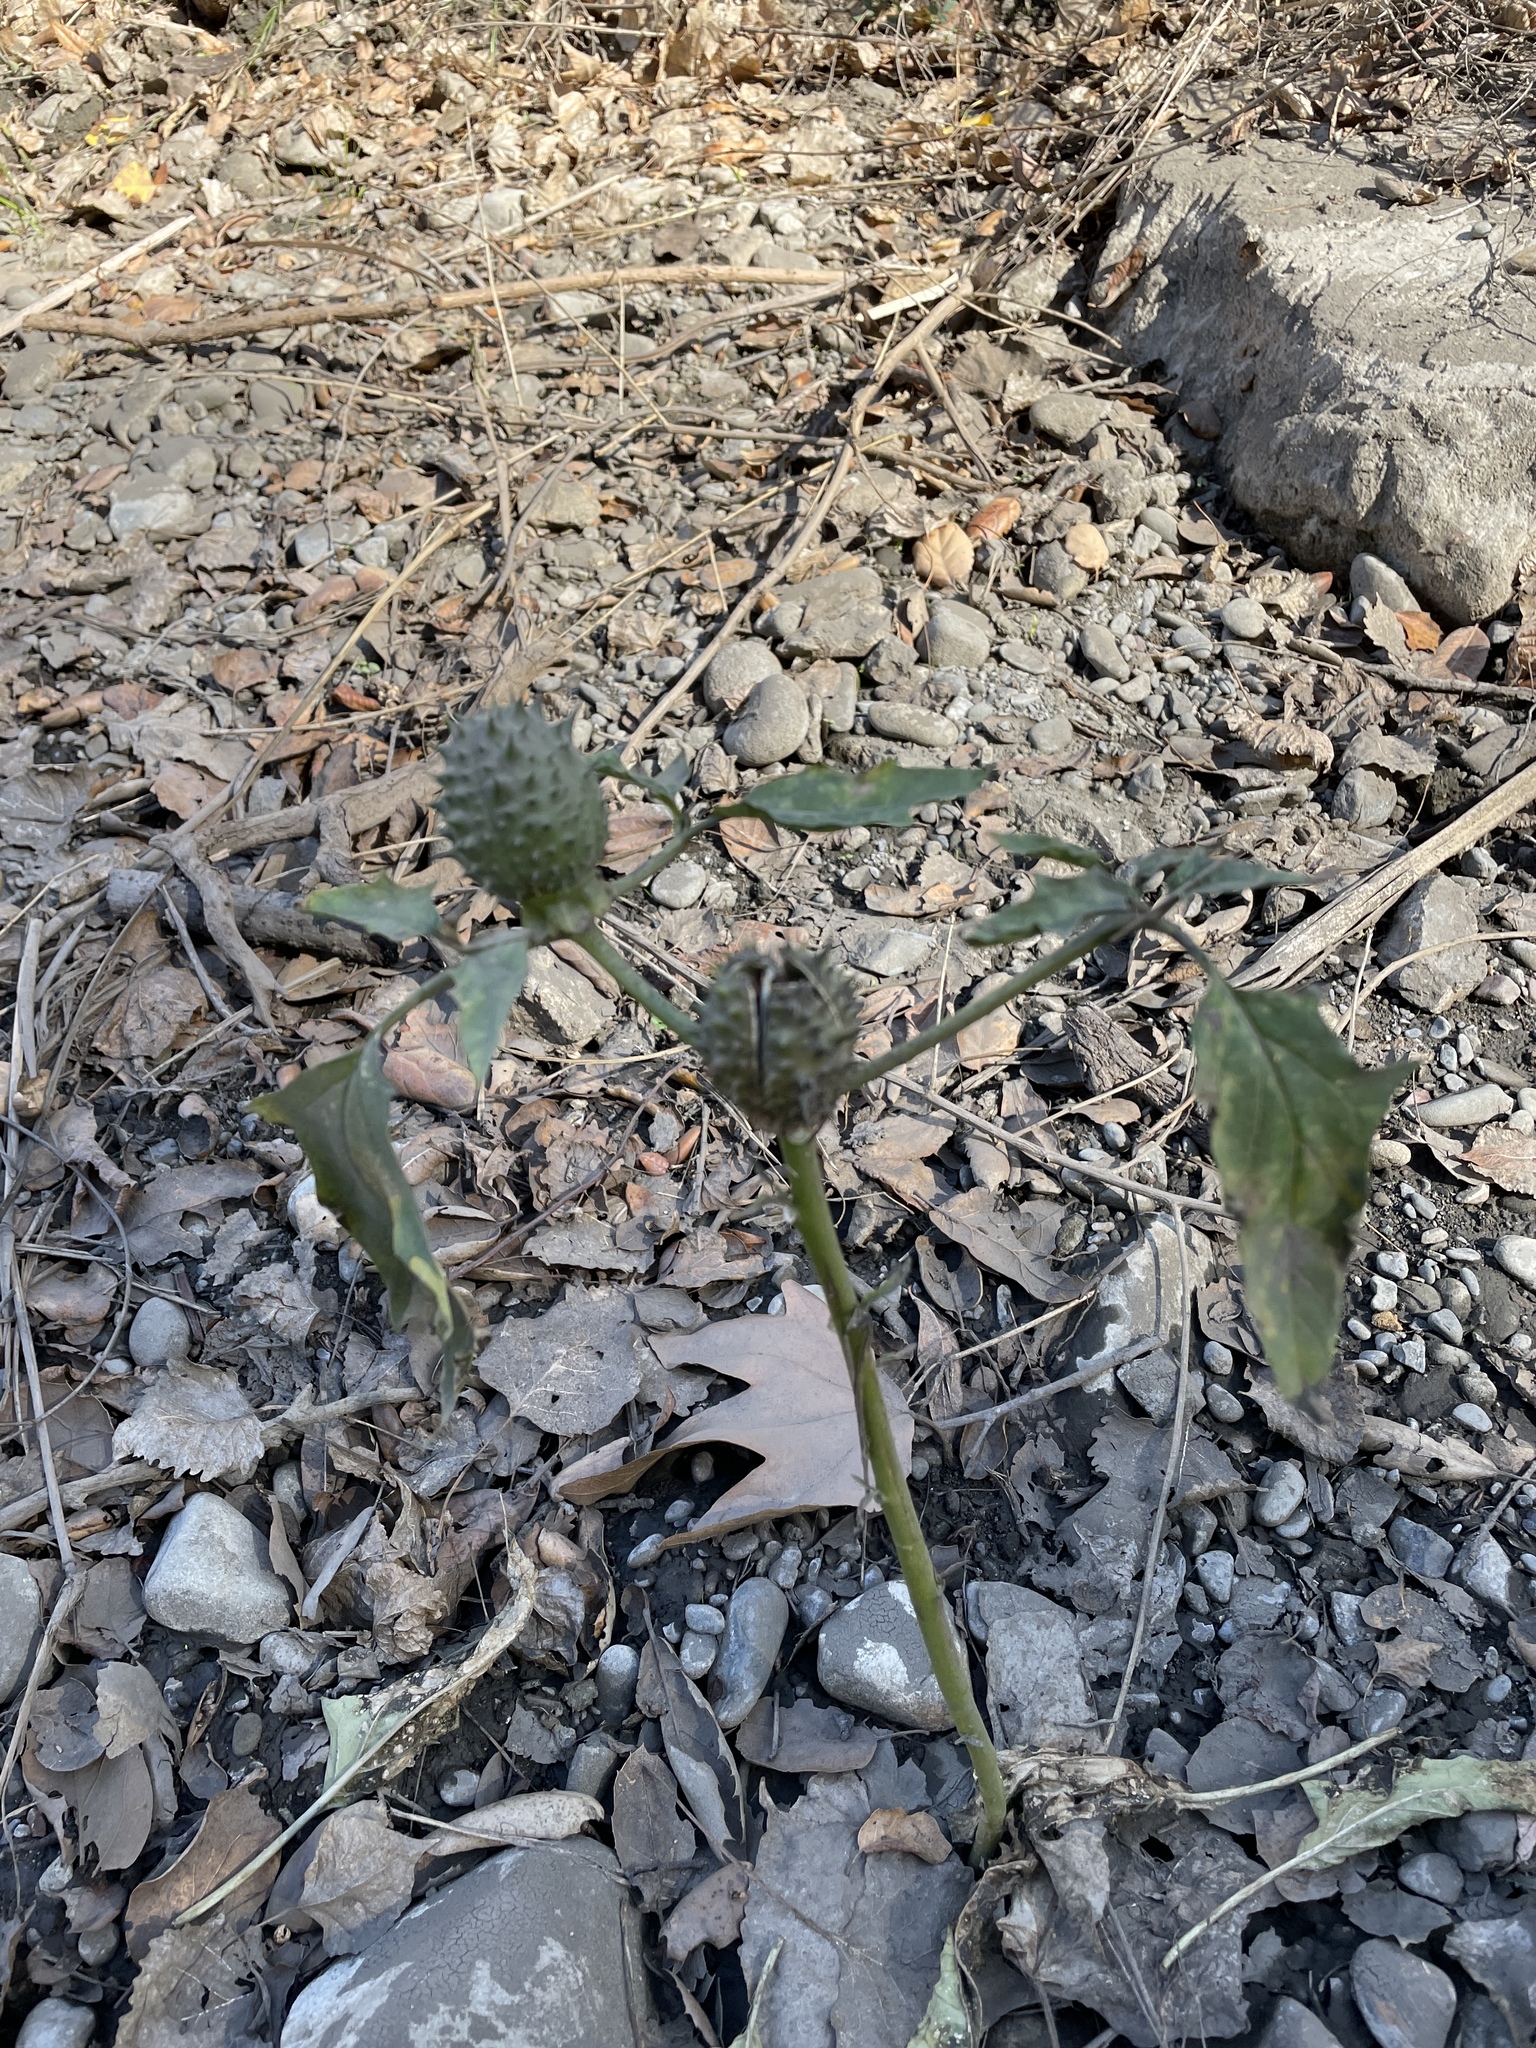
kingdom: Plantae
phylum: Tracheophyta
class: Magnoliopsida
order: Solanales
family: Solanaceae
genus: Datura
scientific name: Datura stramonium
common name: Thorn-apple
